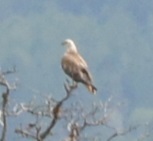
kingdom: Animalia
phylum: Chordata
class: Aves
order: Accipitriformes
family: Accipitridae
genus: Buteo
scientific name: Buteo rufinus
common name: Long-legged buzzard
